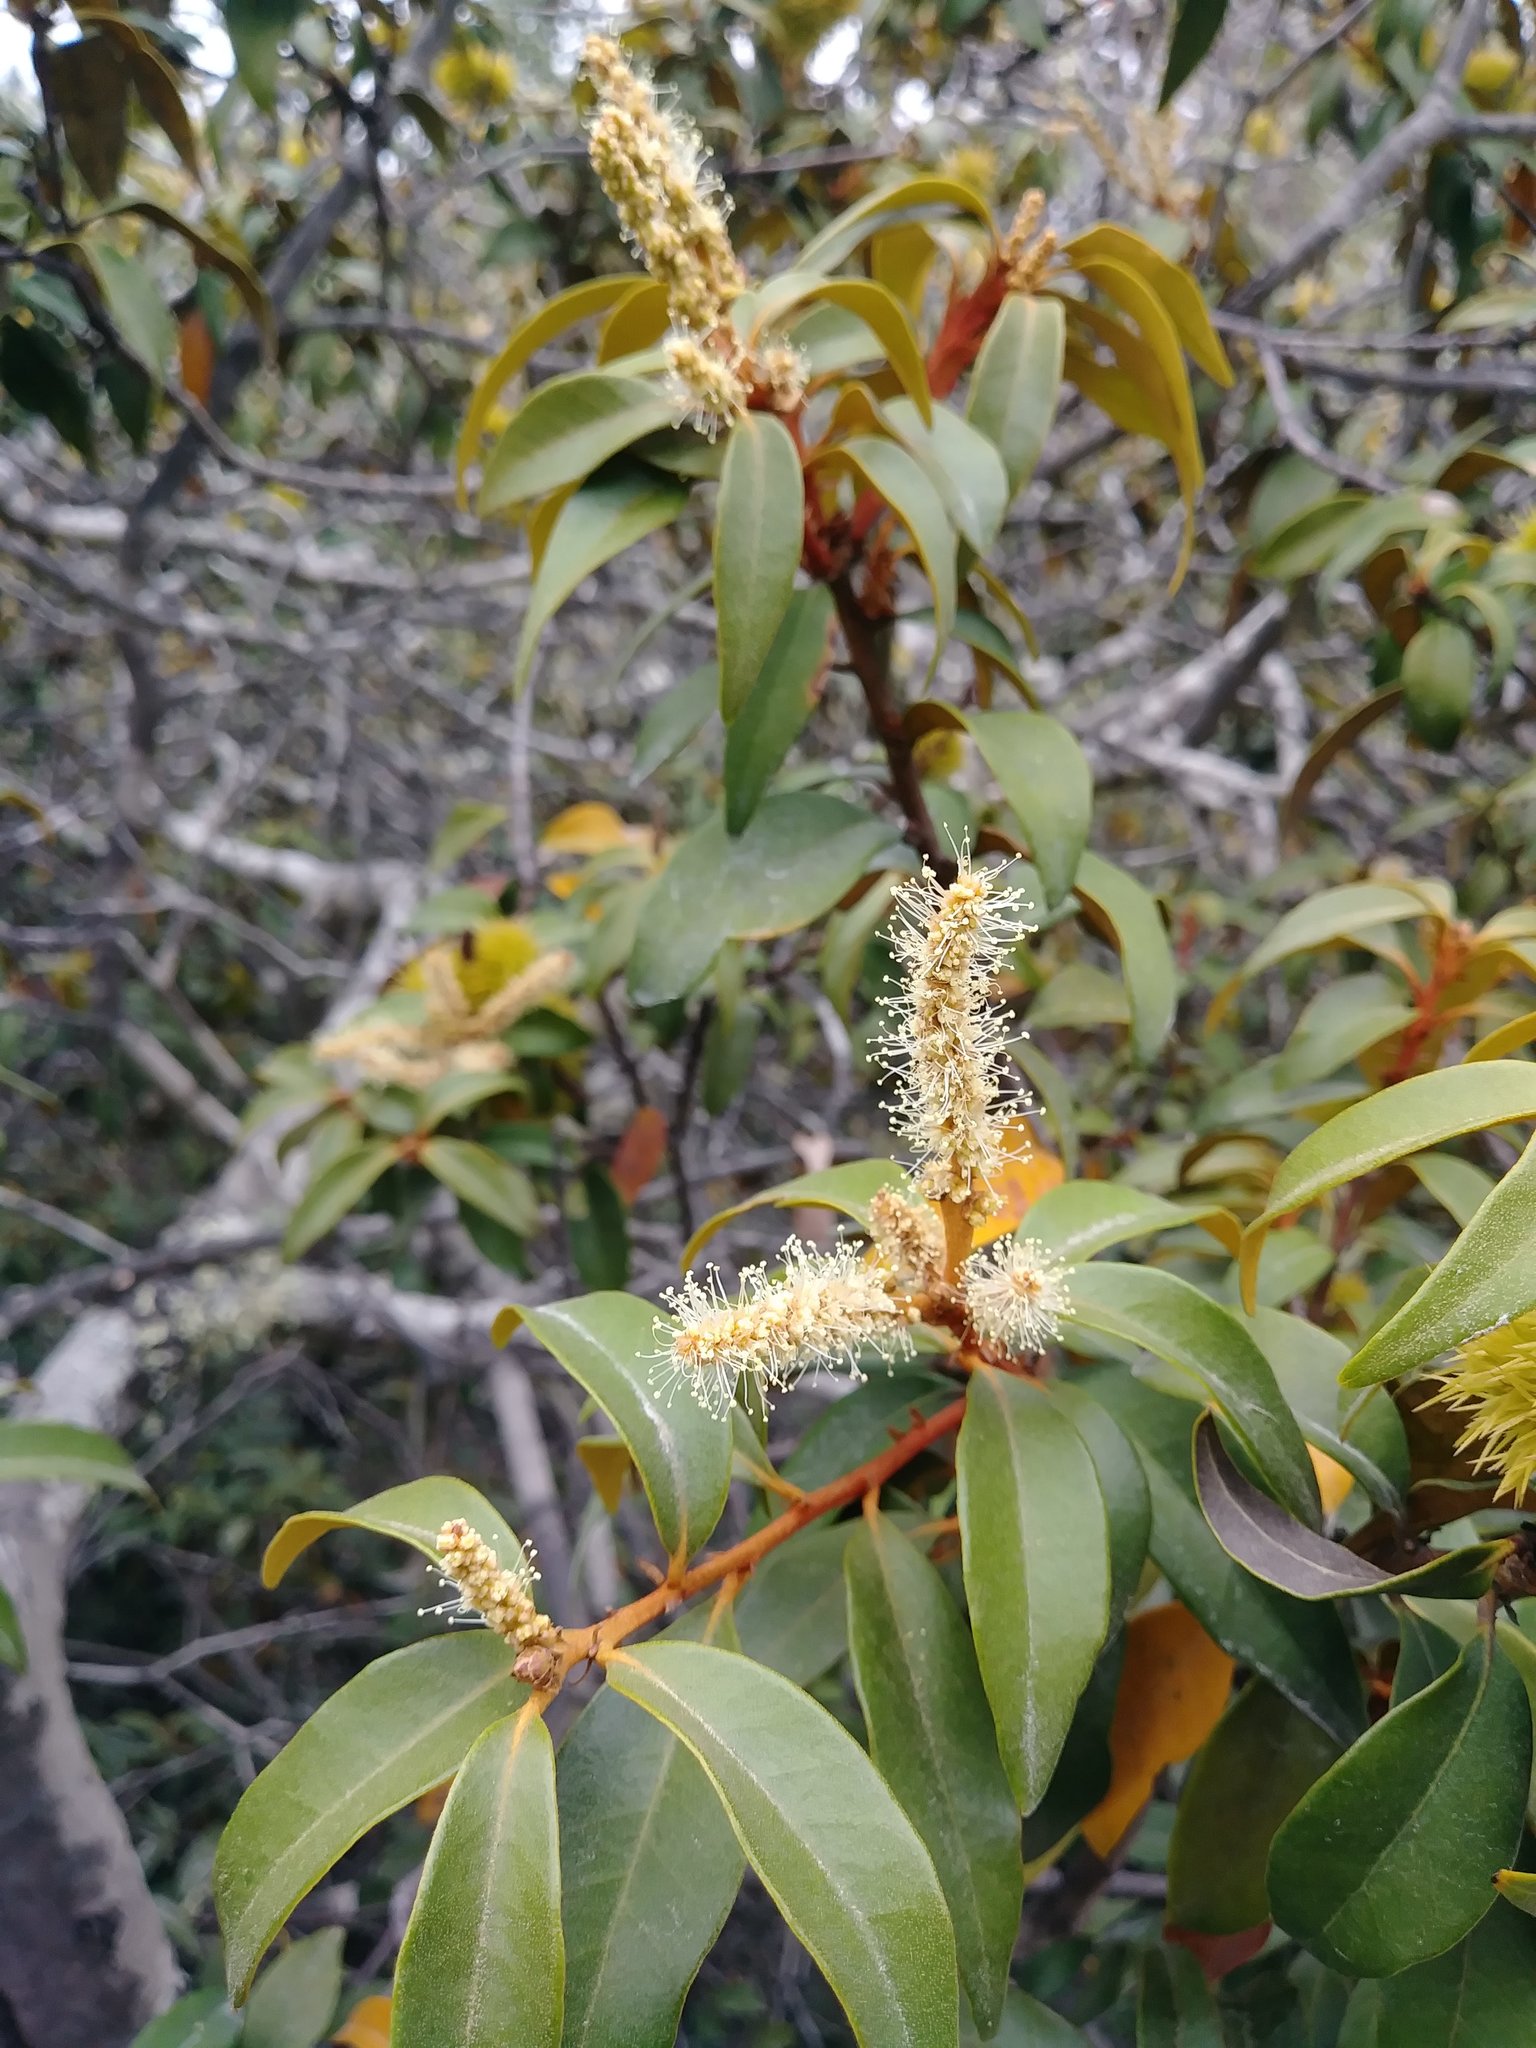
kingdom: Plantae
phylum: Tracheophyta
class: Magnoliopsida
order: Fagales
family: Fagaceae
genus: Chrysolepis
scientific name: Chrysolepis chrysophylla
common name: Giant chinquapin
